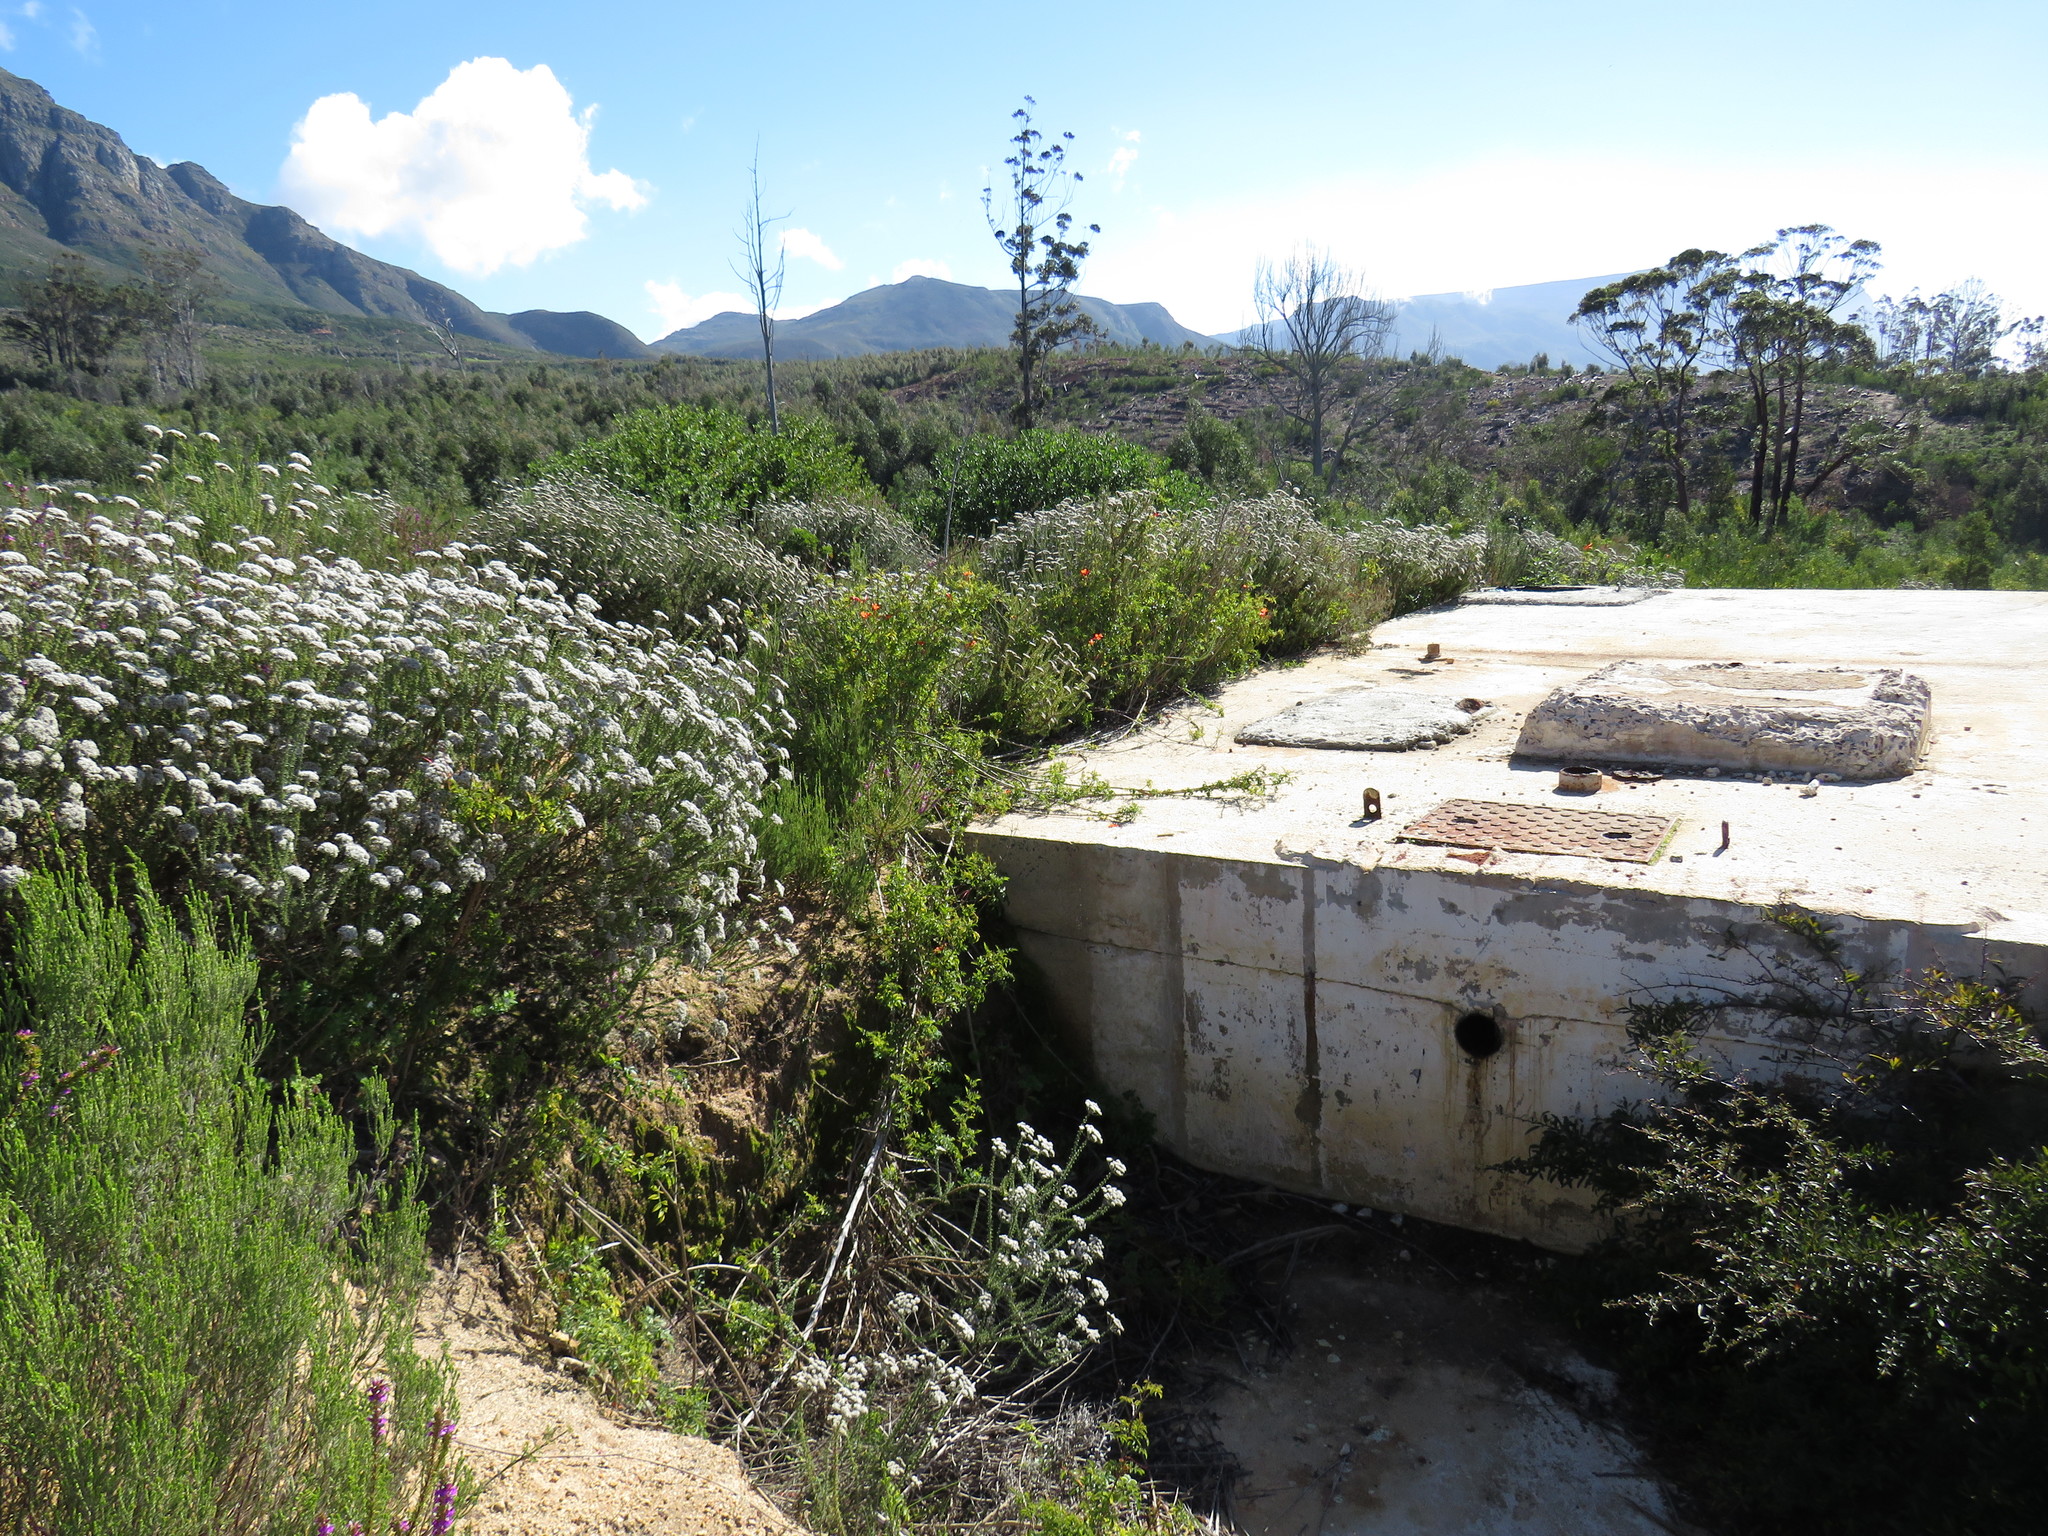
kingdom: Plantae
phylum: Tracheophyta
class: Magnoliopsida
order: Lamiales
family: Bignoniaceae
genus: Tecomaria
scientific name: Tecomaria capensis
